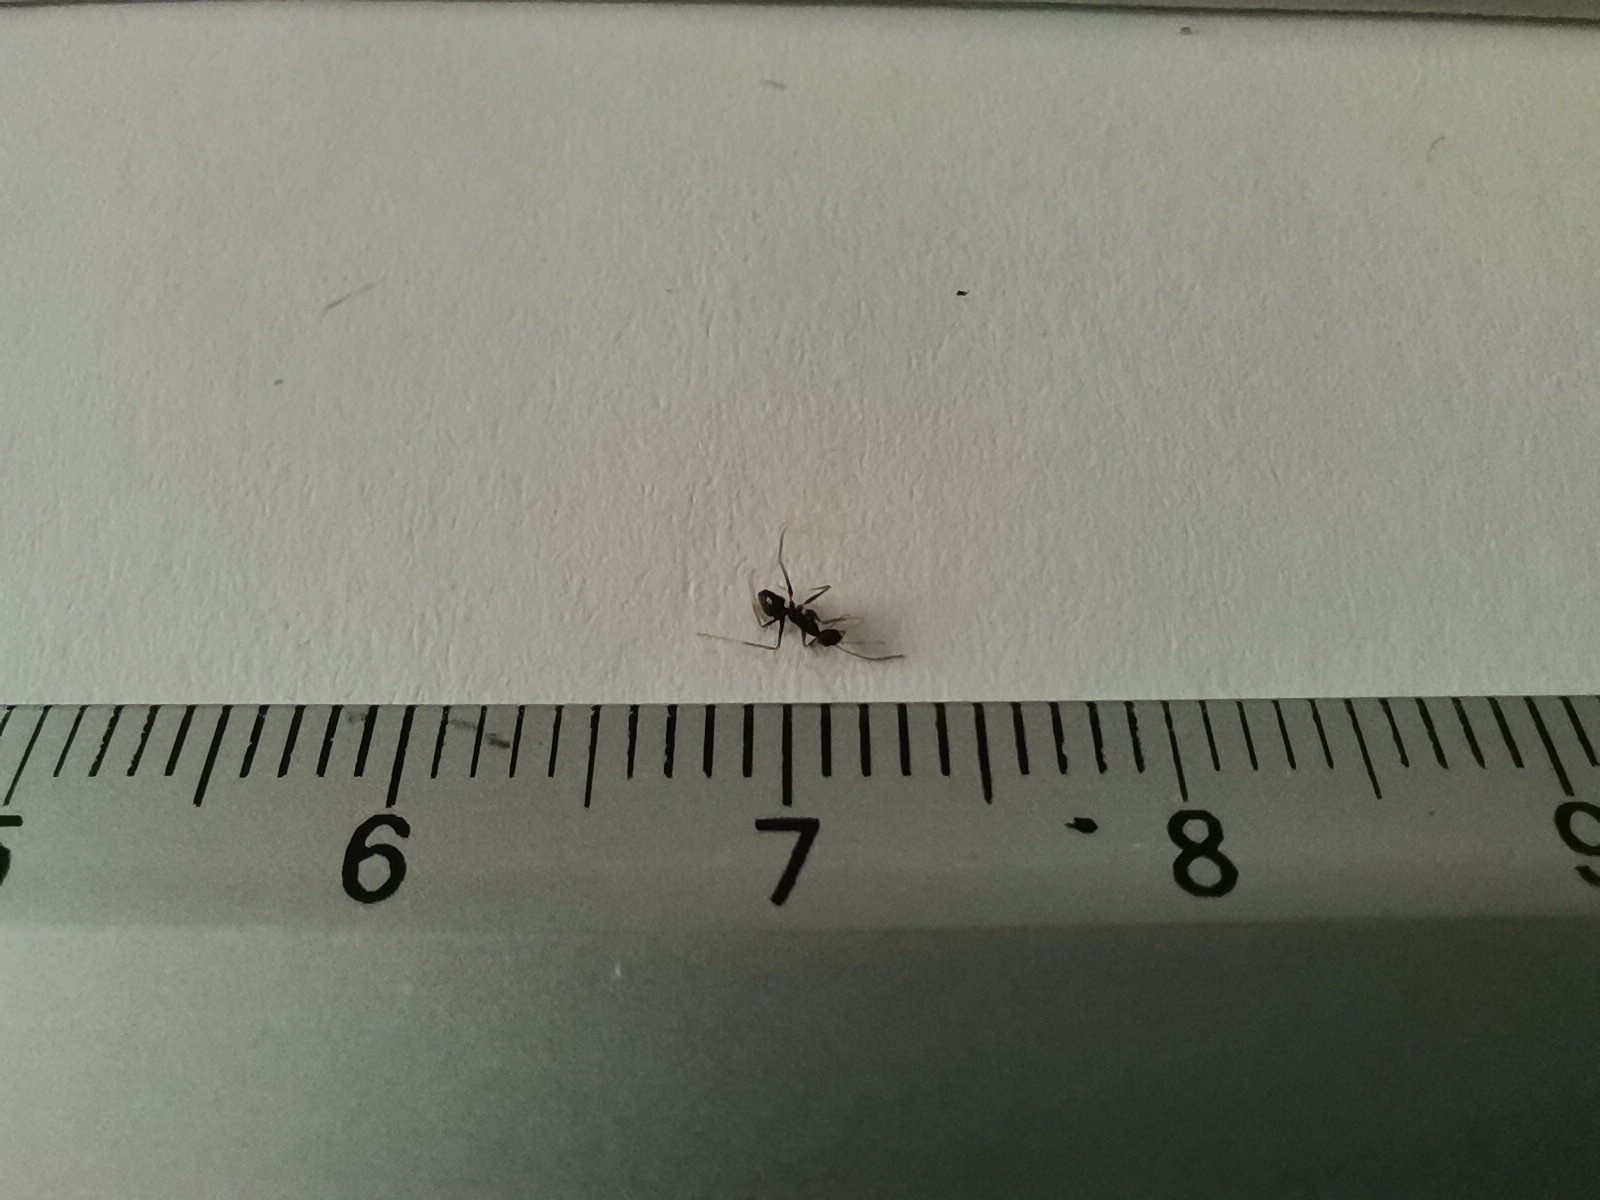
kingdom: Animalia
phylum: Arthropoda
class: Insecta
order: Hymenoptera
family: Formicidae
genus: Paratrechina
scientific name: Paratrechina longicornis
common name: Longhorned crazy ant
